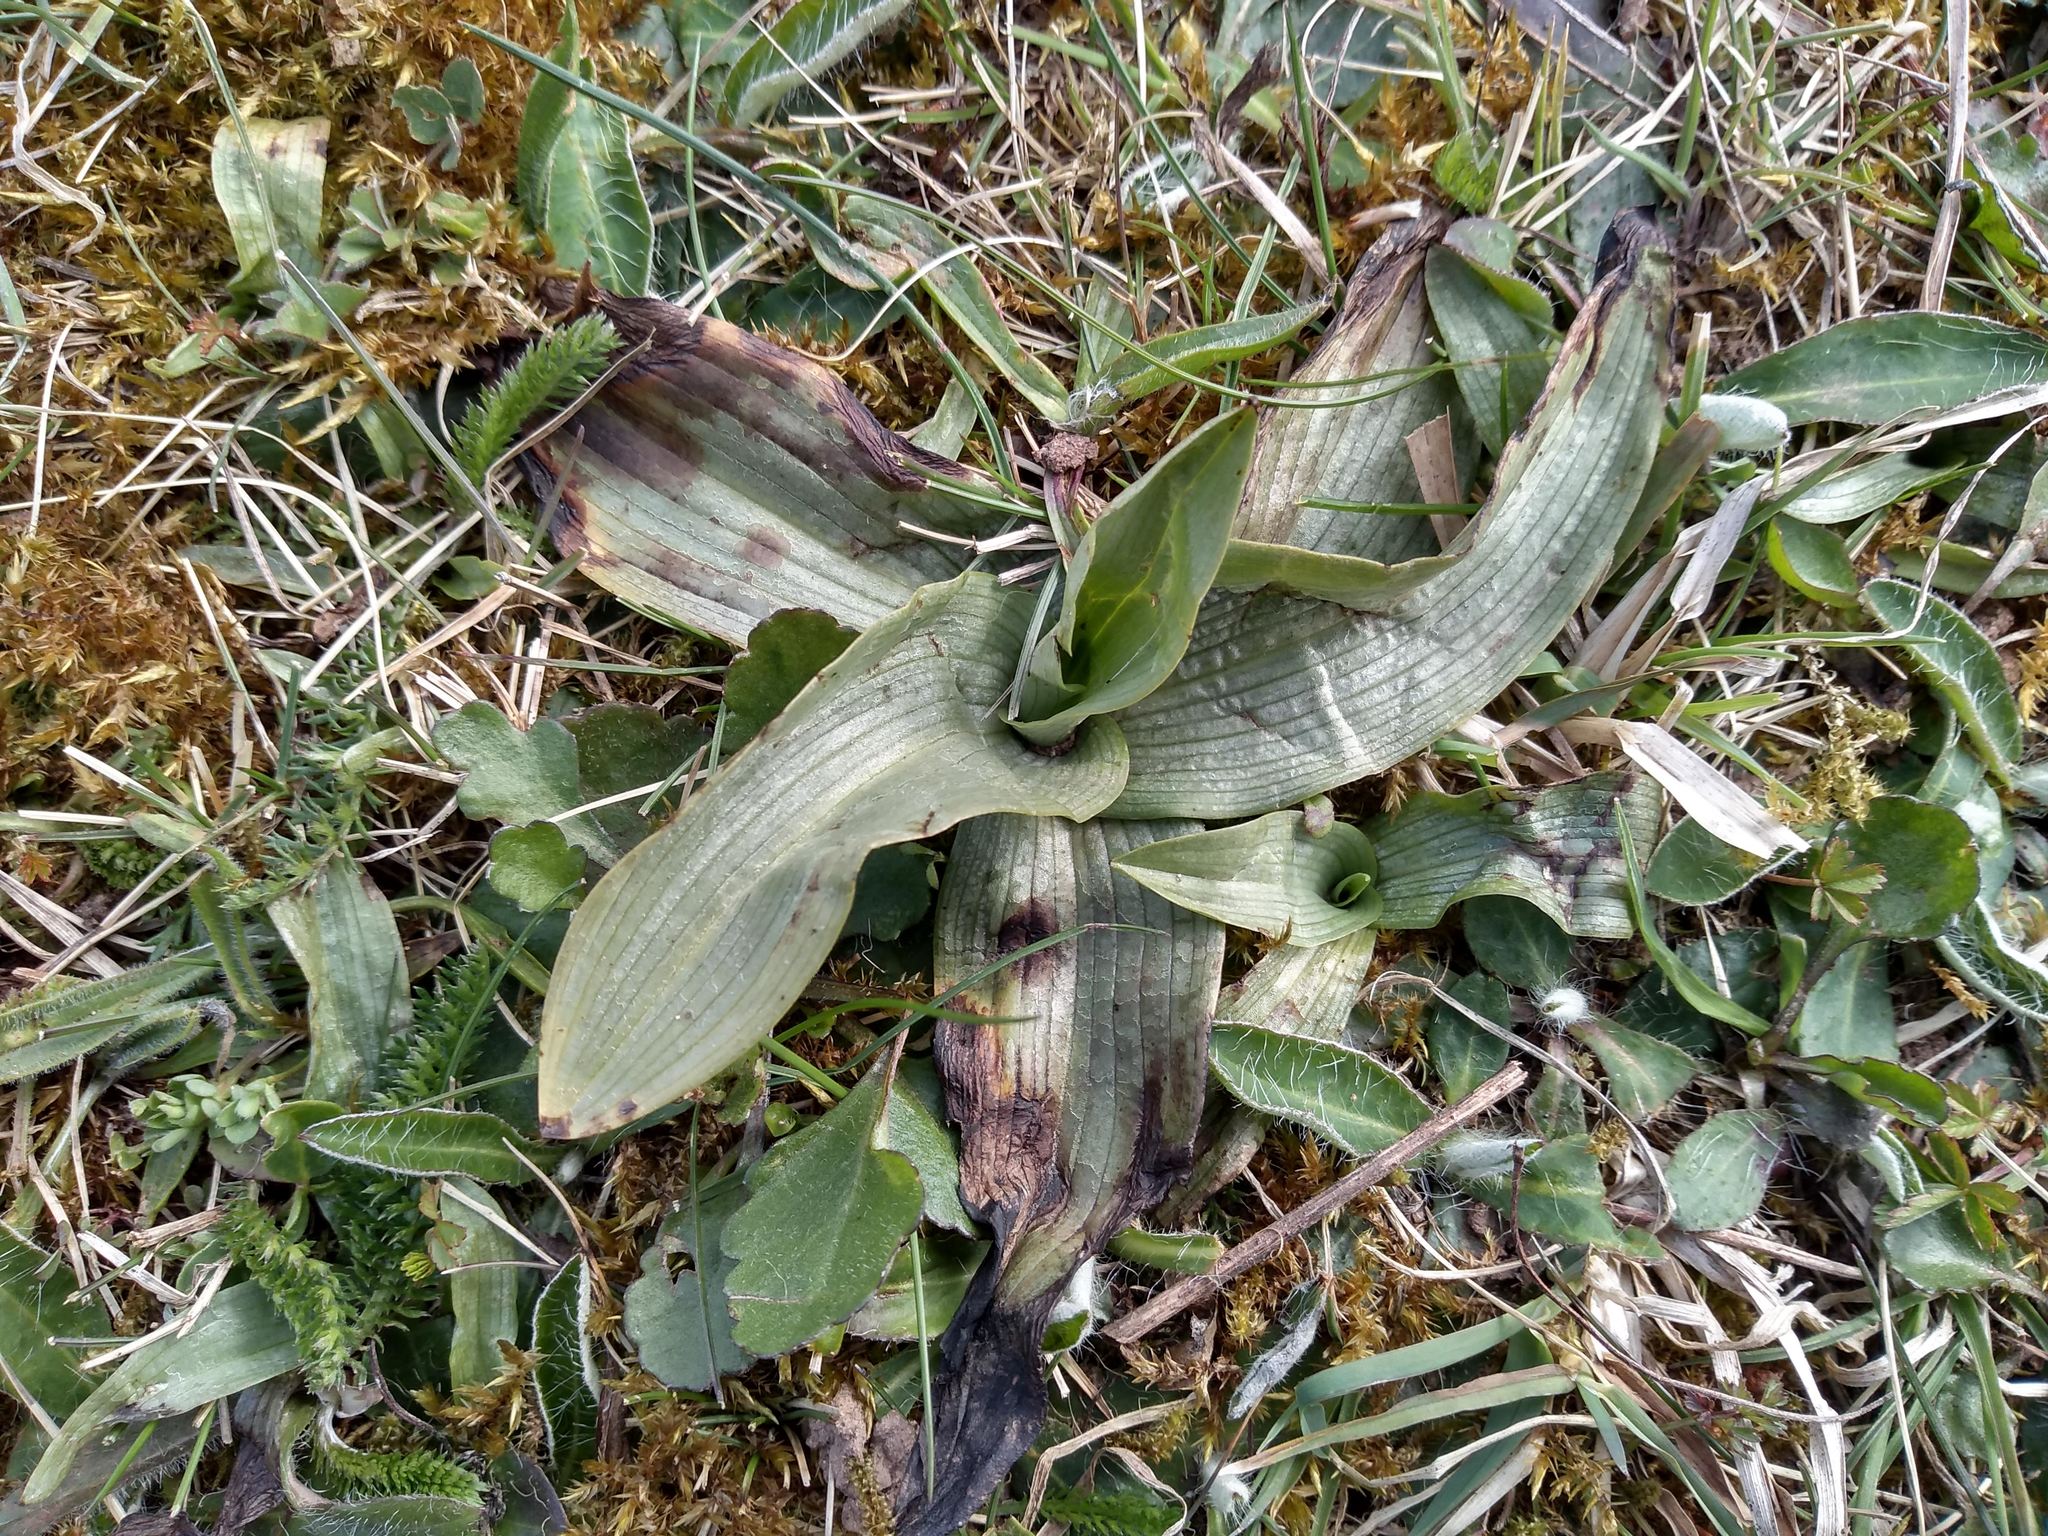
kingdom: Plantae
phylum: Tracheophyta
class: Liliopsida
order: Asparagales
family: Orchidaceae
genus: Ophrys
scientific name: Ophrys apifera
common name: Bee orchid
